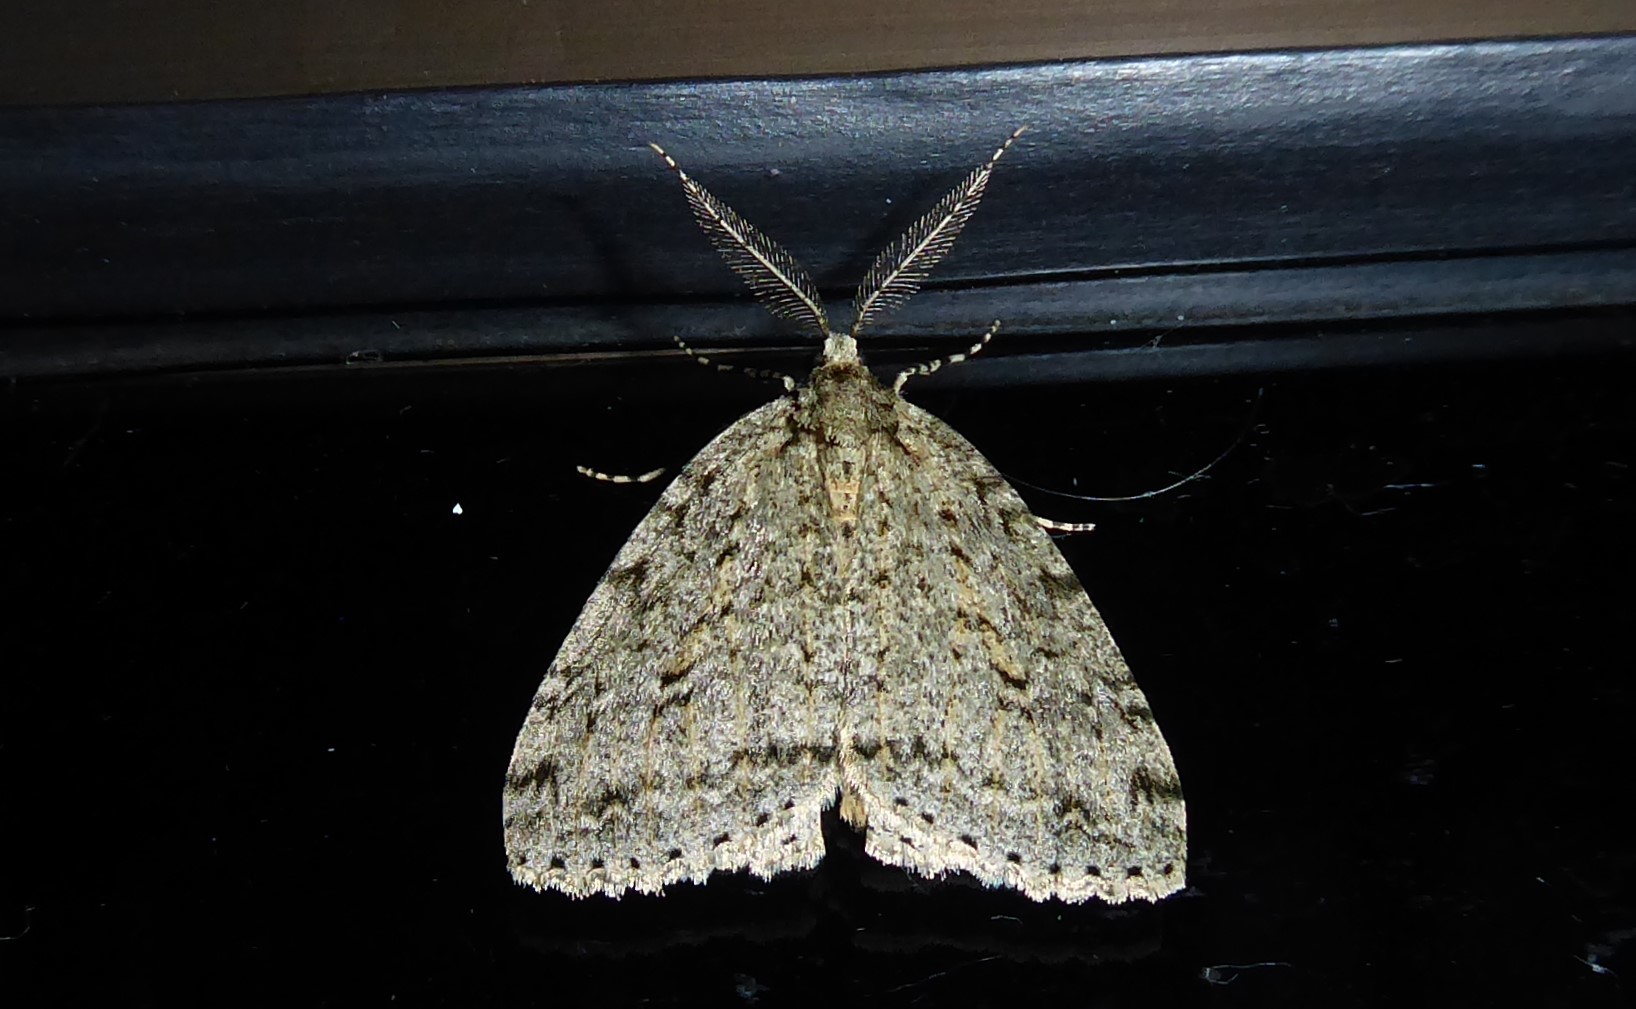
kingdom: Animalia
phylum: Arthropoda
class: Insecta
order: Lepidoptera
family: Geometridae
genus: Pseudocoremia
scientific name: Pseudocoremia rudisata
